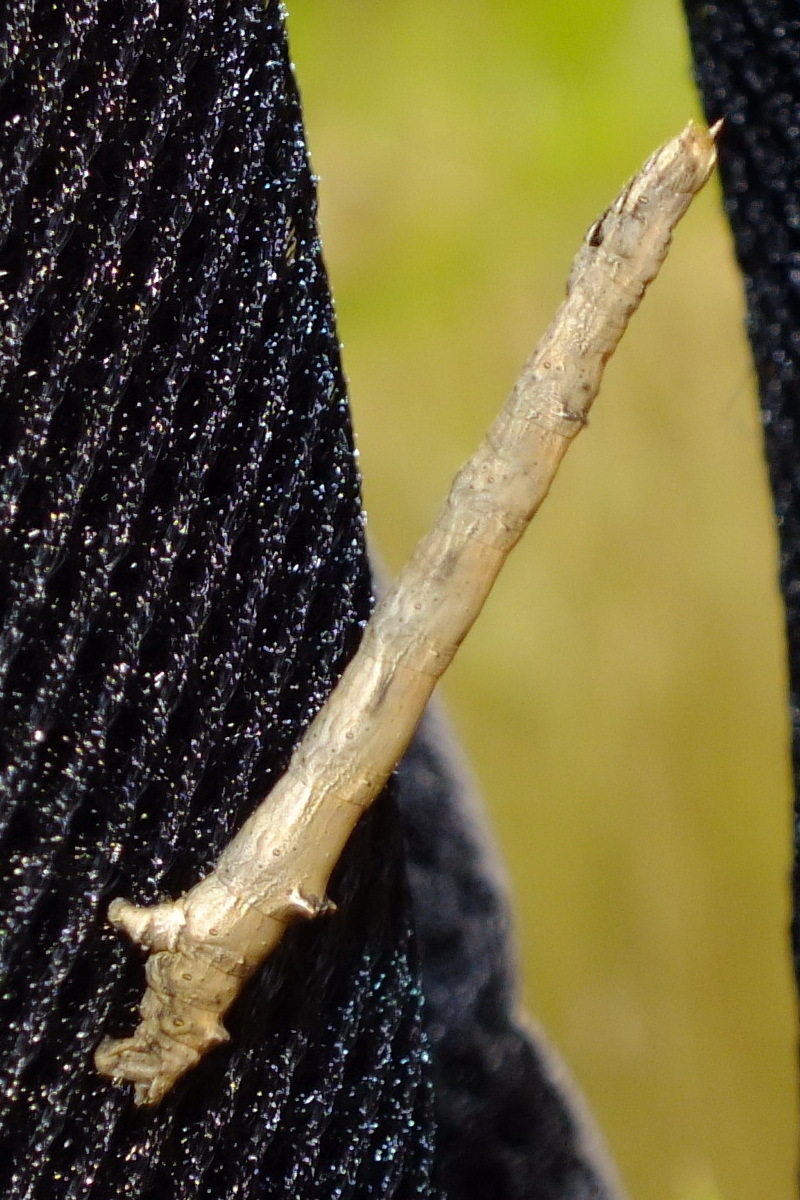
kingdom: Animalia
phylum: Arthropoda
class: Insecta
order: Lepidoptera
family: Geometridae
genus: Angerona
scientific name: Angerona prunaria
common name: Orange moth
